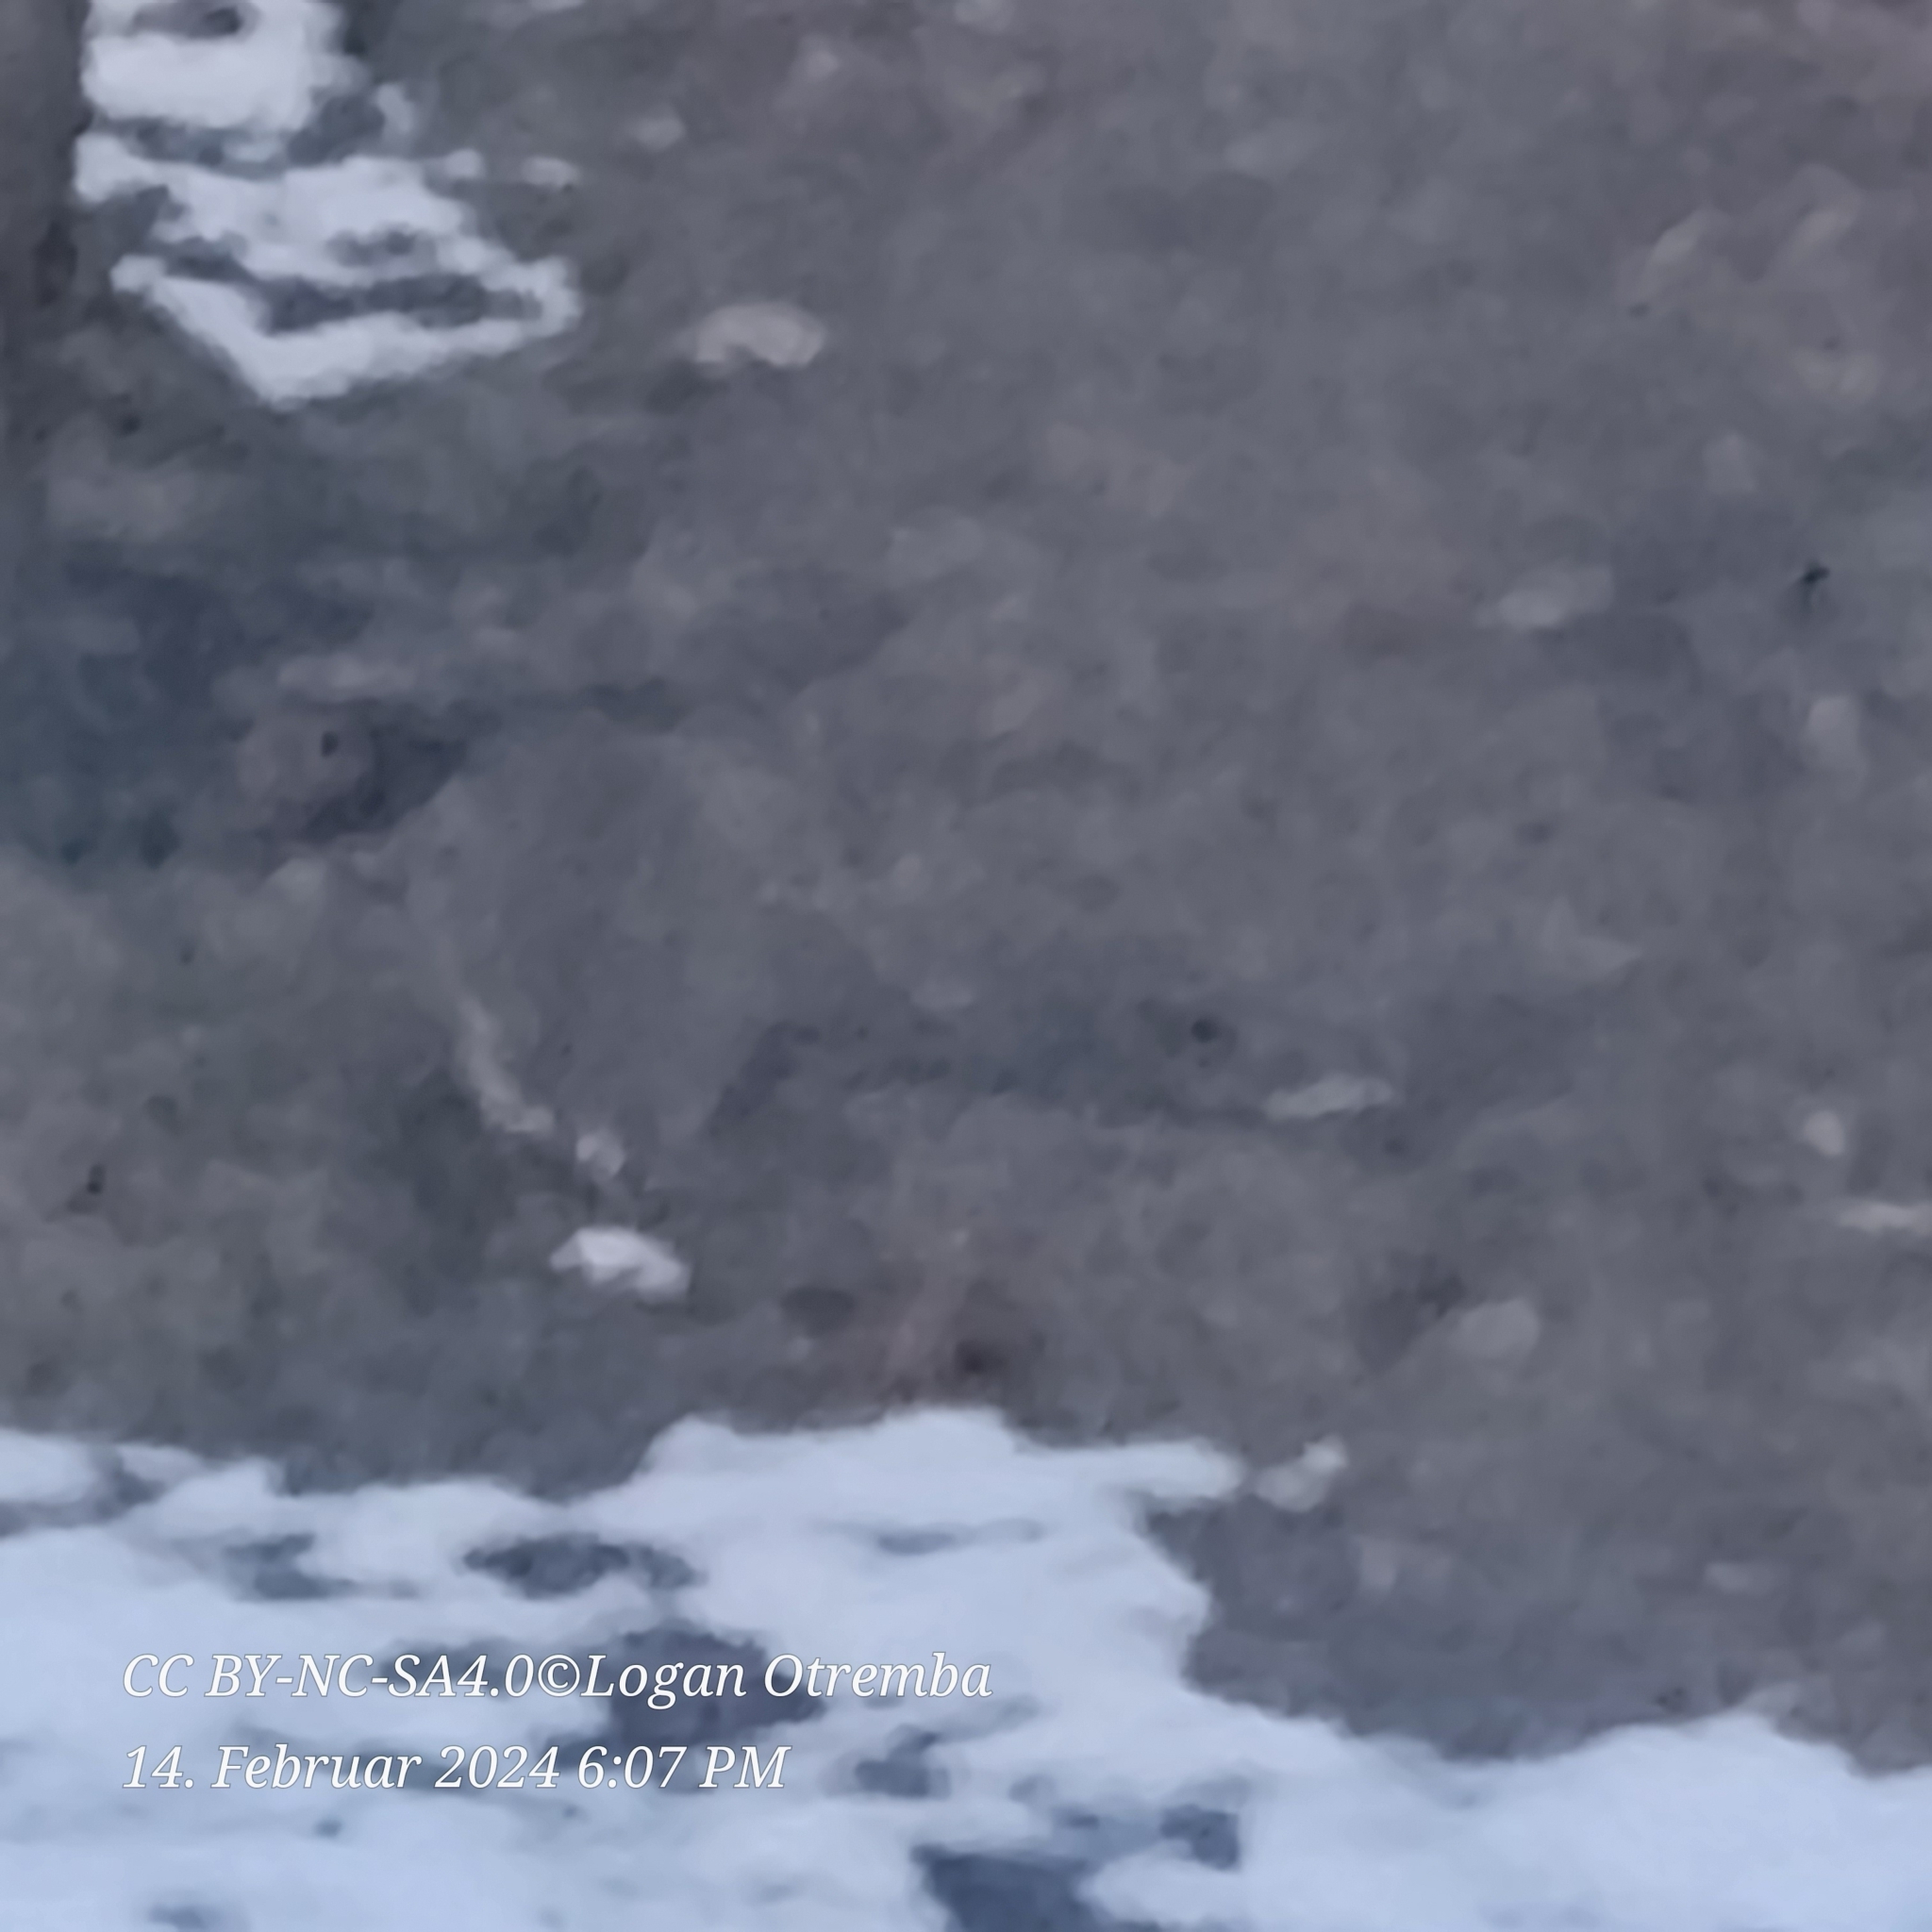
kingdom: Animalia
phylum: Chordata
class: Mammalia
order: Lagomorpha
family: Leporidae
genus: Sylvilagus
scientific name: Sylvilagus floridanus
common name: Eastern cottontail
